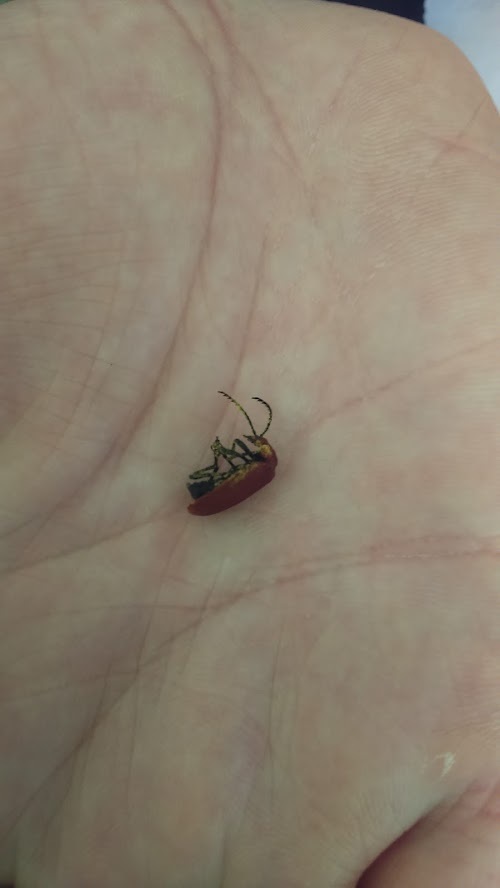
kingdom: Animalia
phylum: Arthropoda
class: Insecta
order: Coleoptera
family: Pyrochroidae
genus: Pyrochroa
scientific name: Pyrochroa serraticornis
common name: Red-headed cardinal beetle
